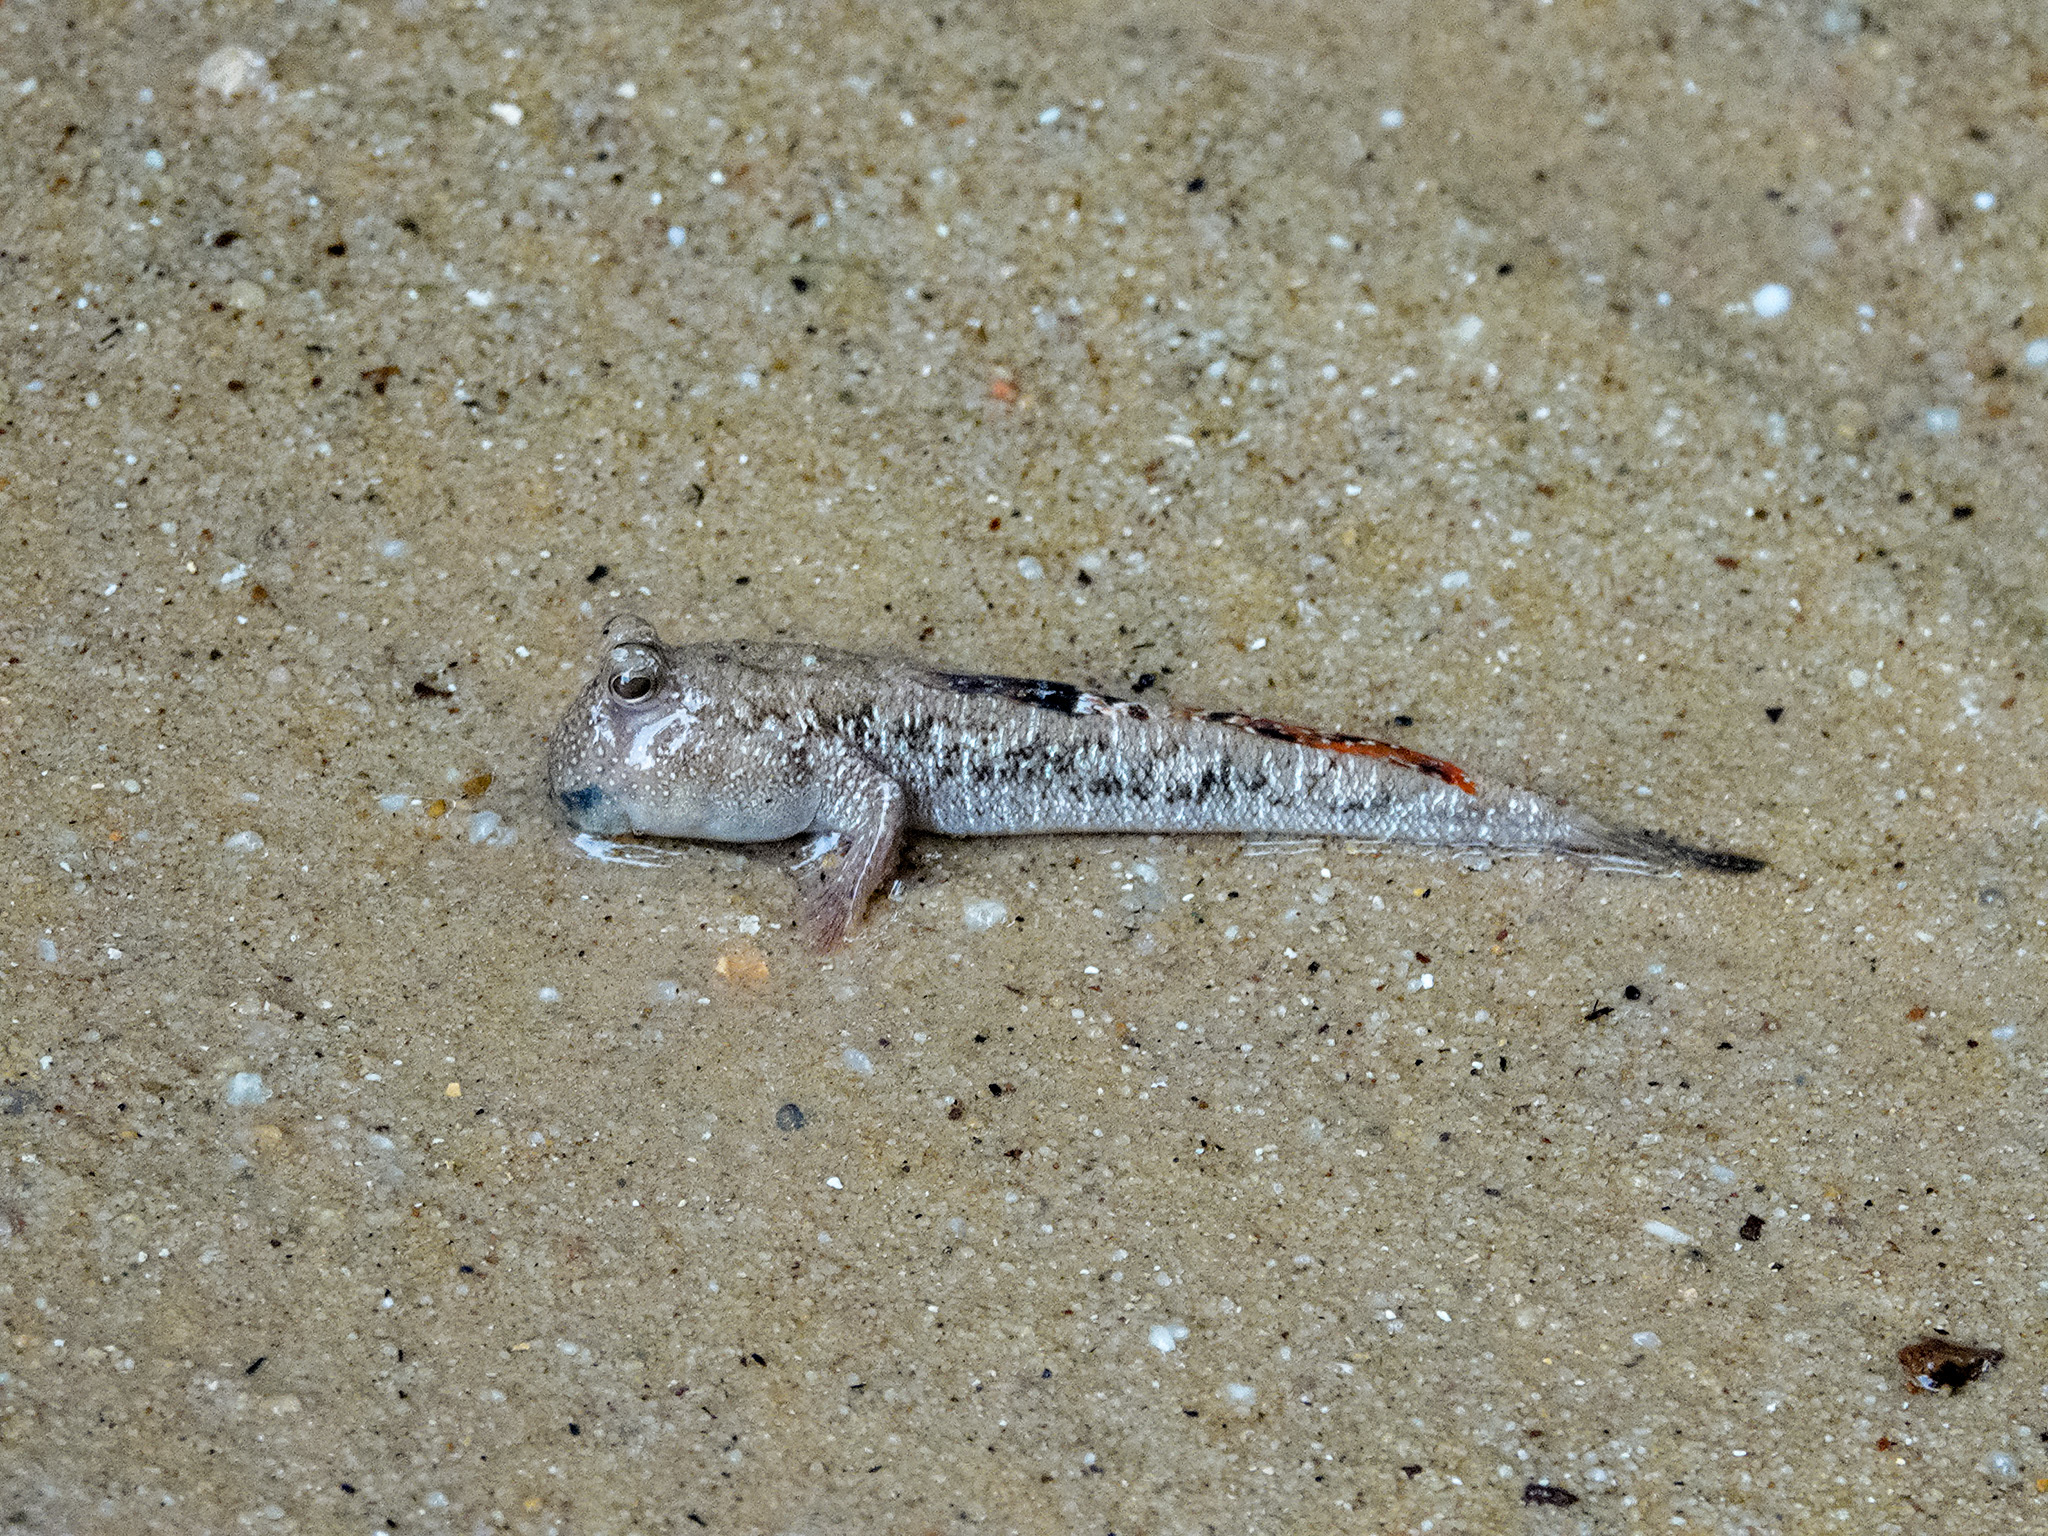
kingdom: Animalia
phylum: Chordata
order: Perciformes
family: Gobiidae
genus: Periophthalmus
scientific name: Periophthalmus argentilineatus
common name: Barred mudskipper
